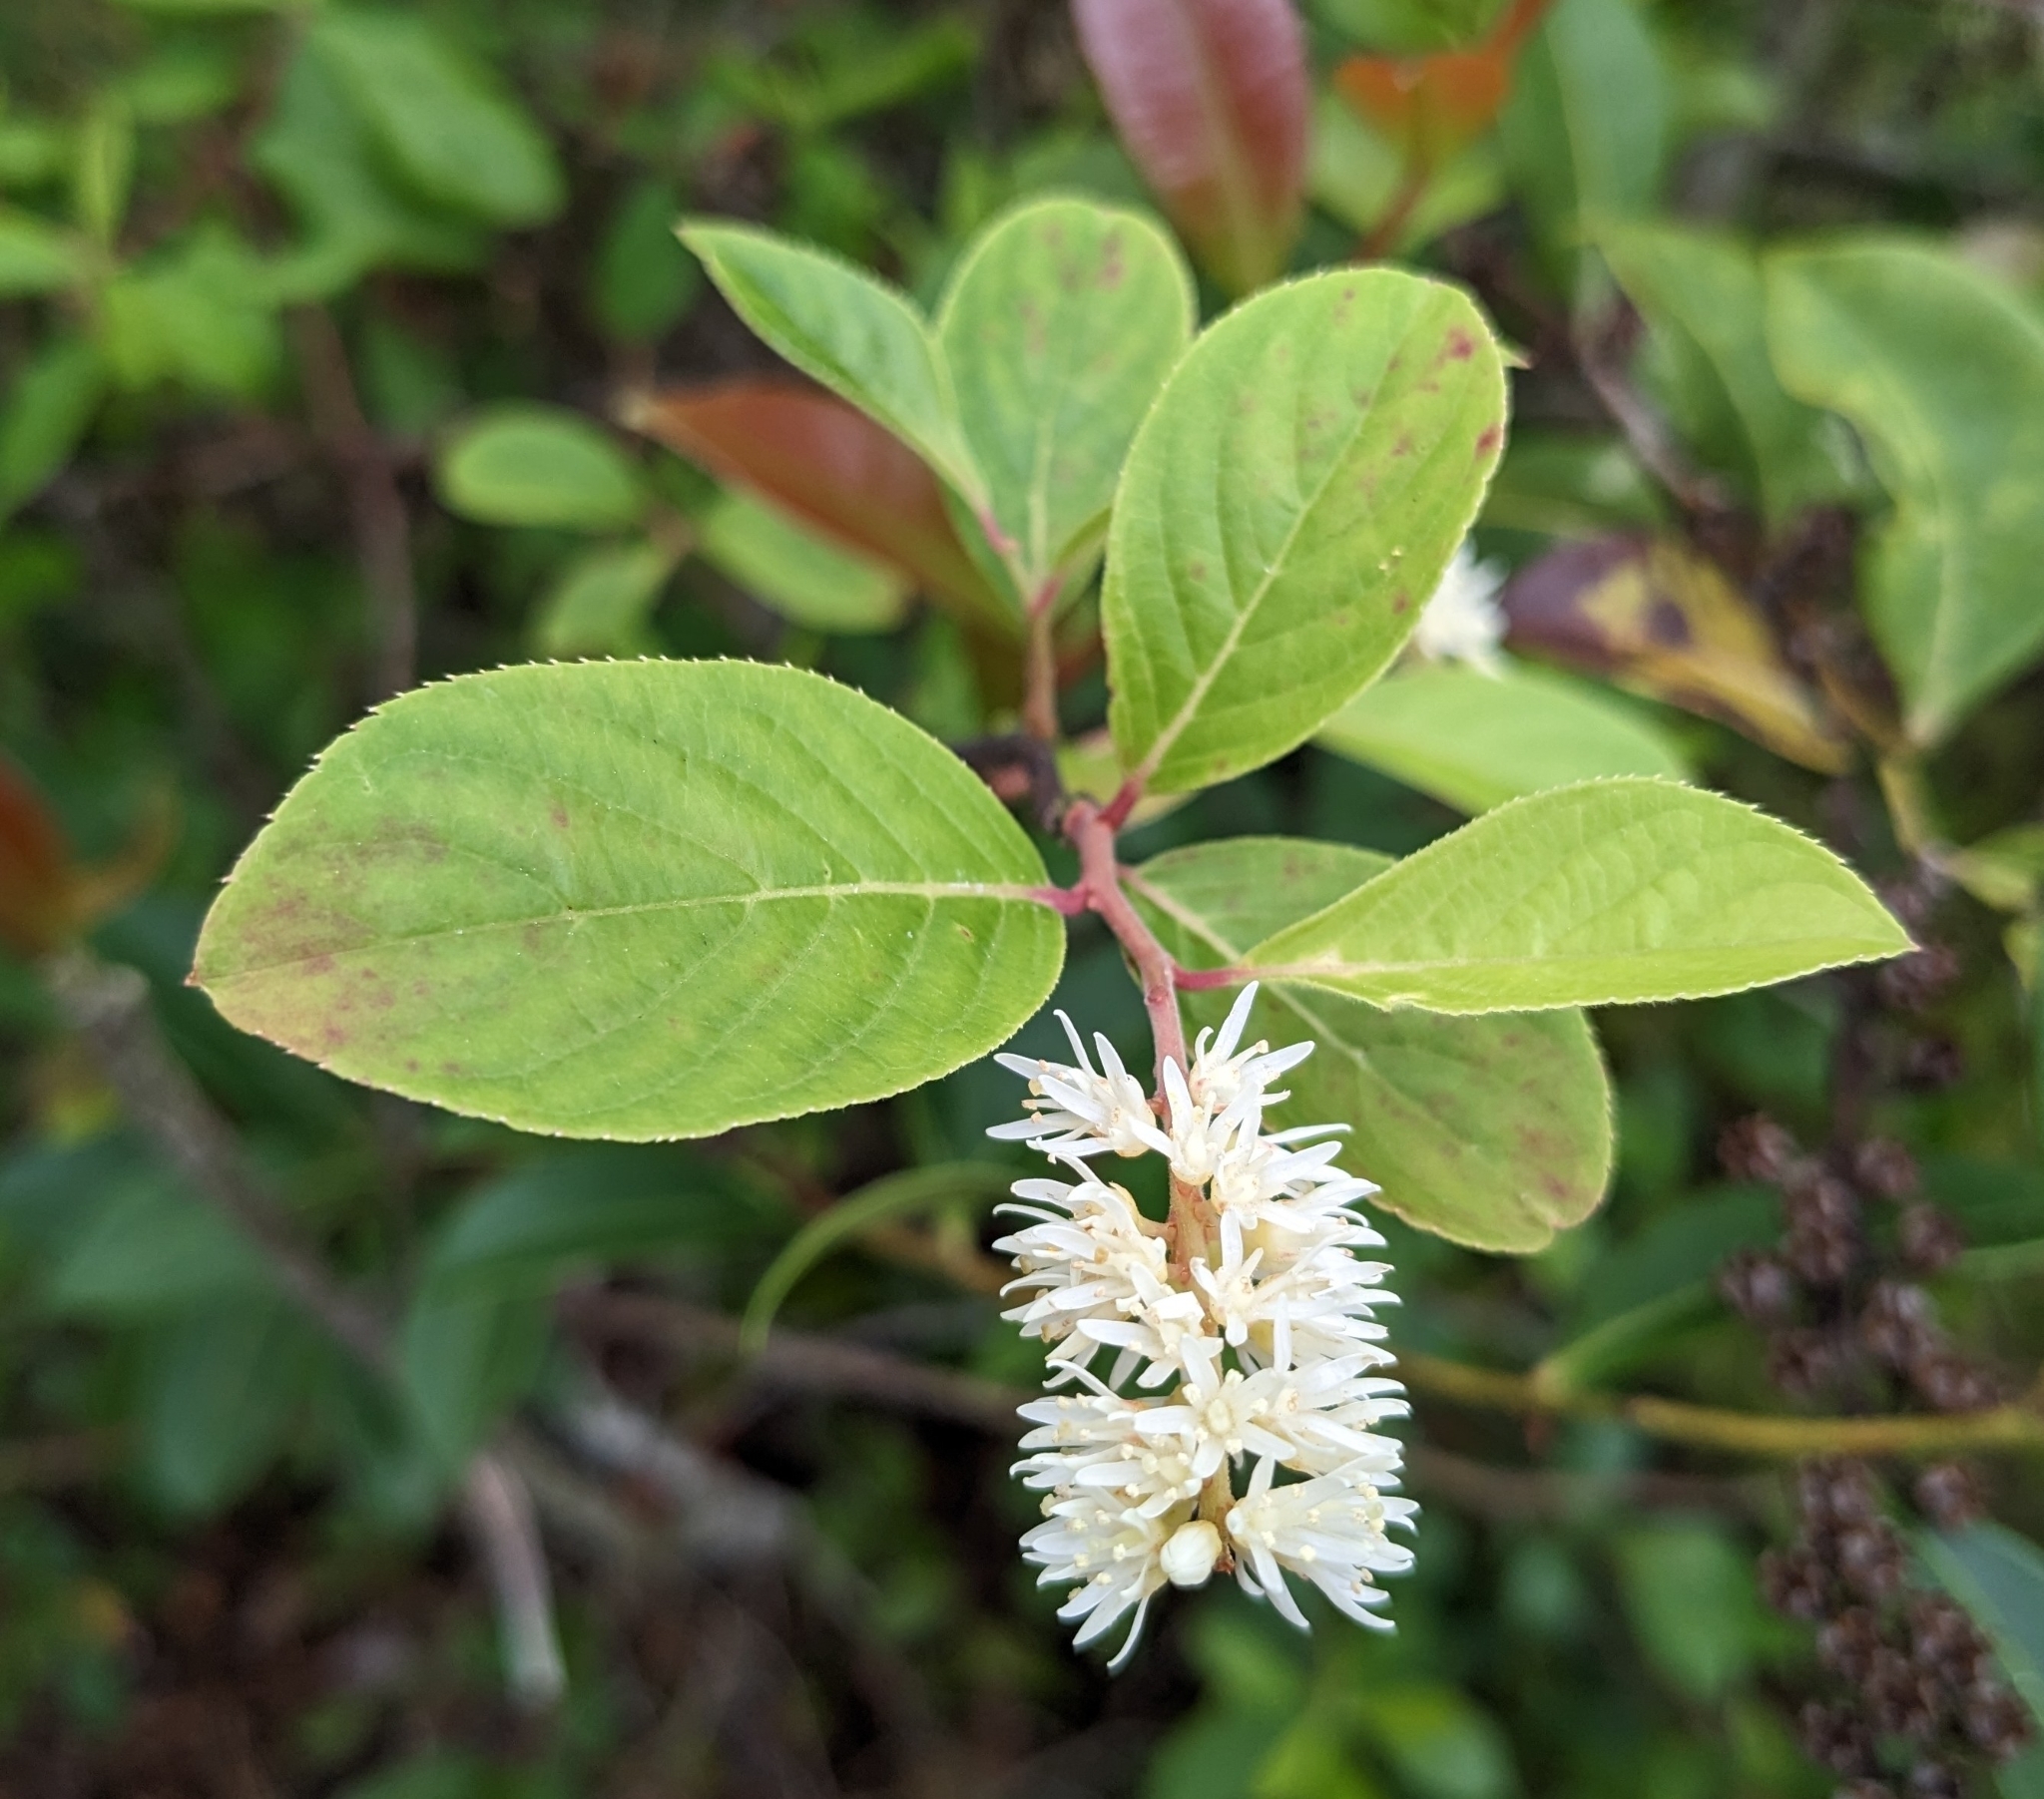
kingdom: Plantae
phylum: Tracheophyta
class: Magnoliopsida
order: Saxifragales
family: Iteaceae
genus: Itea
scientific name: Itea virginica
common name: Sweetspire
